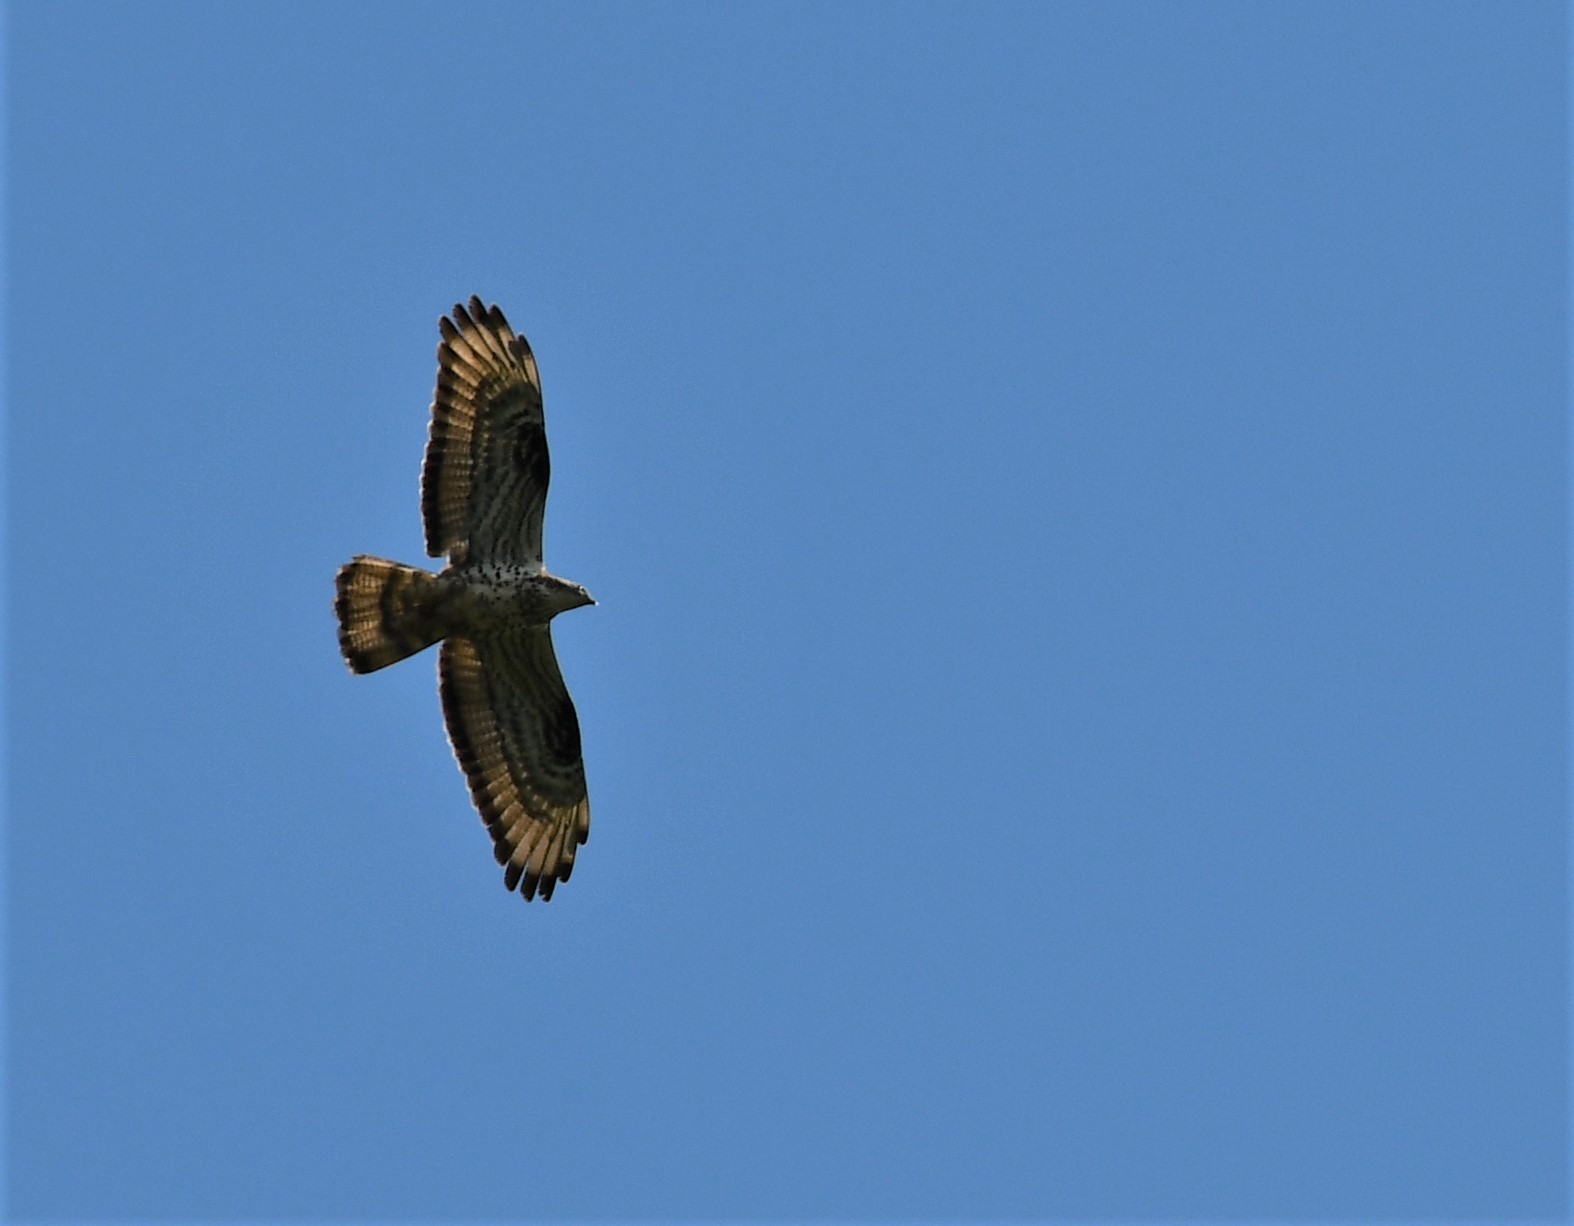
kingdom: Animalia
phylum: Chordata
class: Aves
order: Accipitriformes
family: Accipitridae
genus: Pernis
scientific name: Pernis apivorus
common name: European honey buzzard
